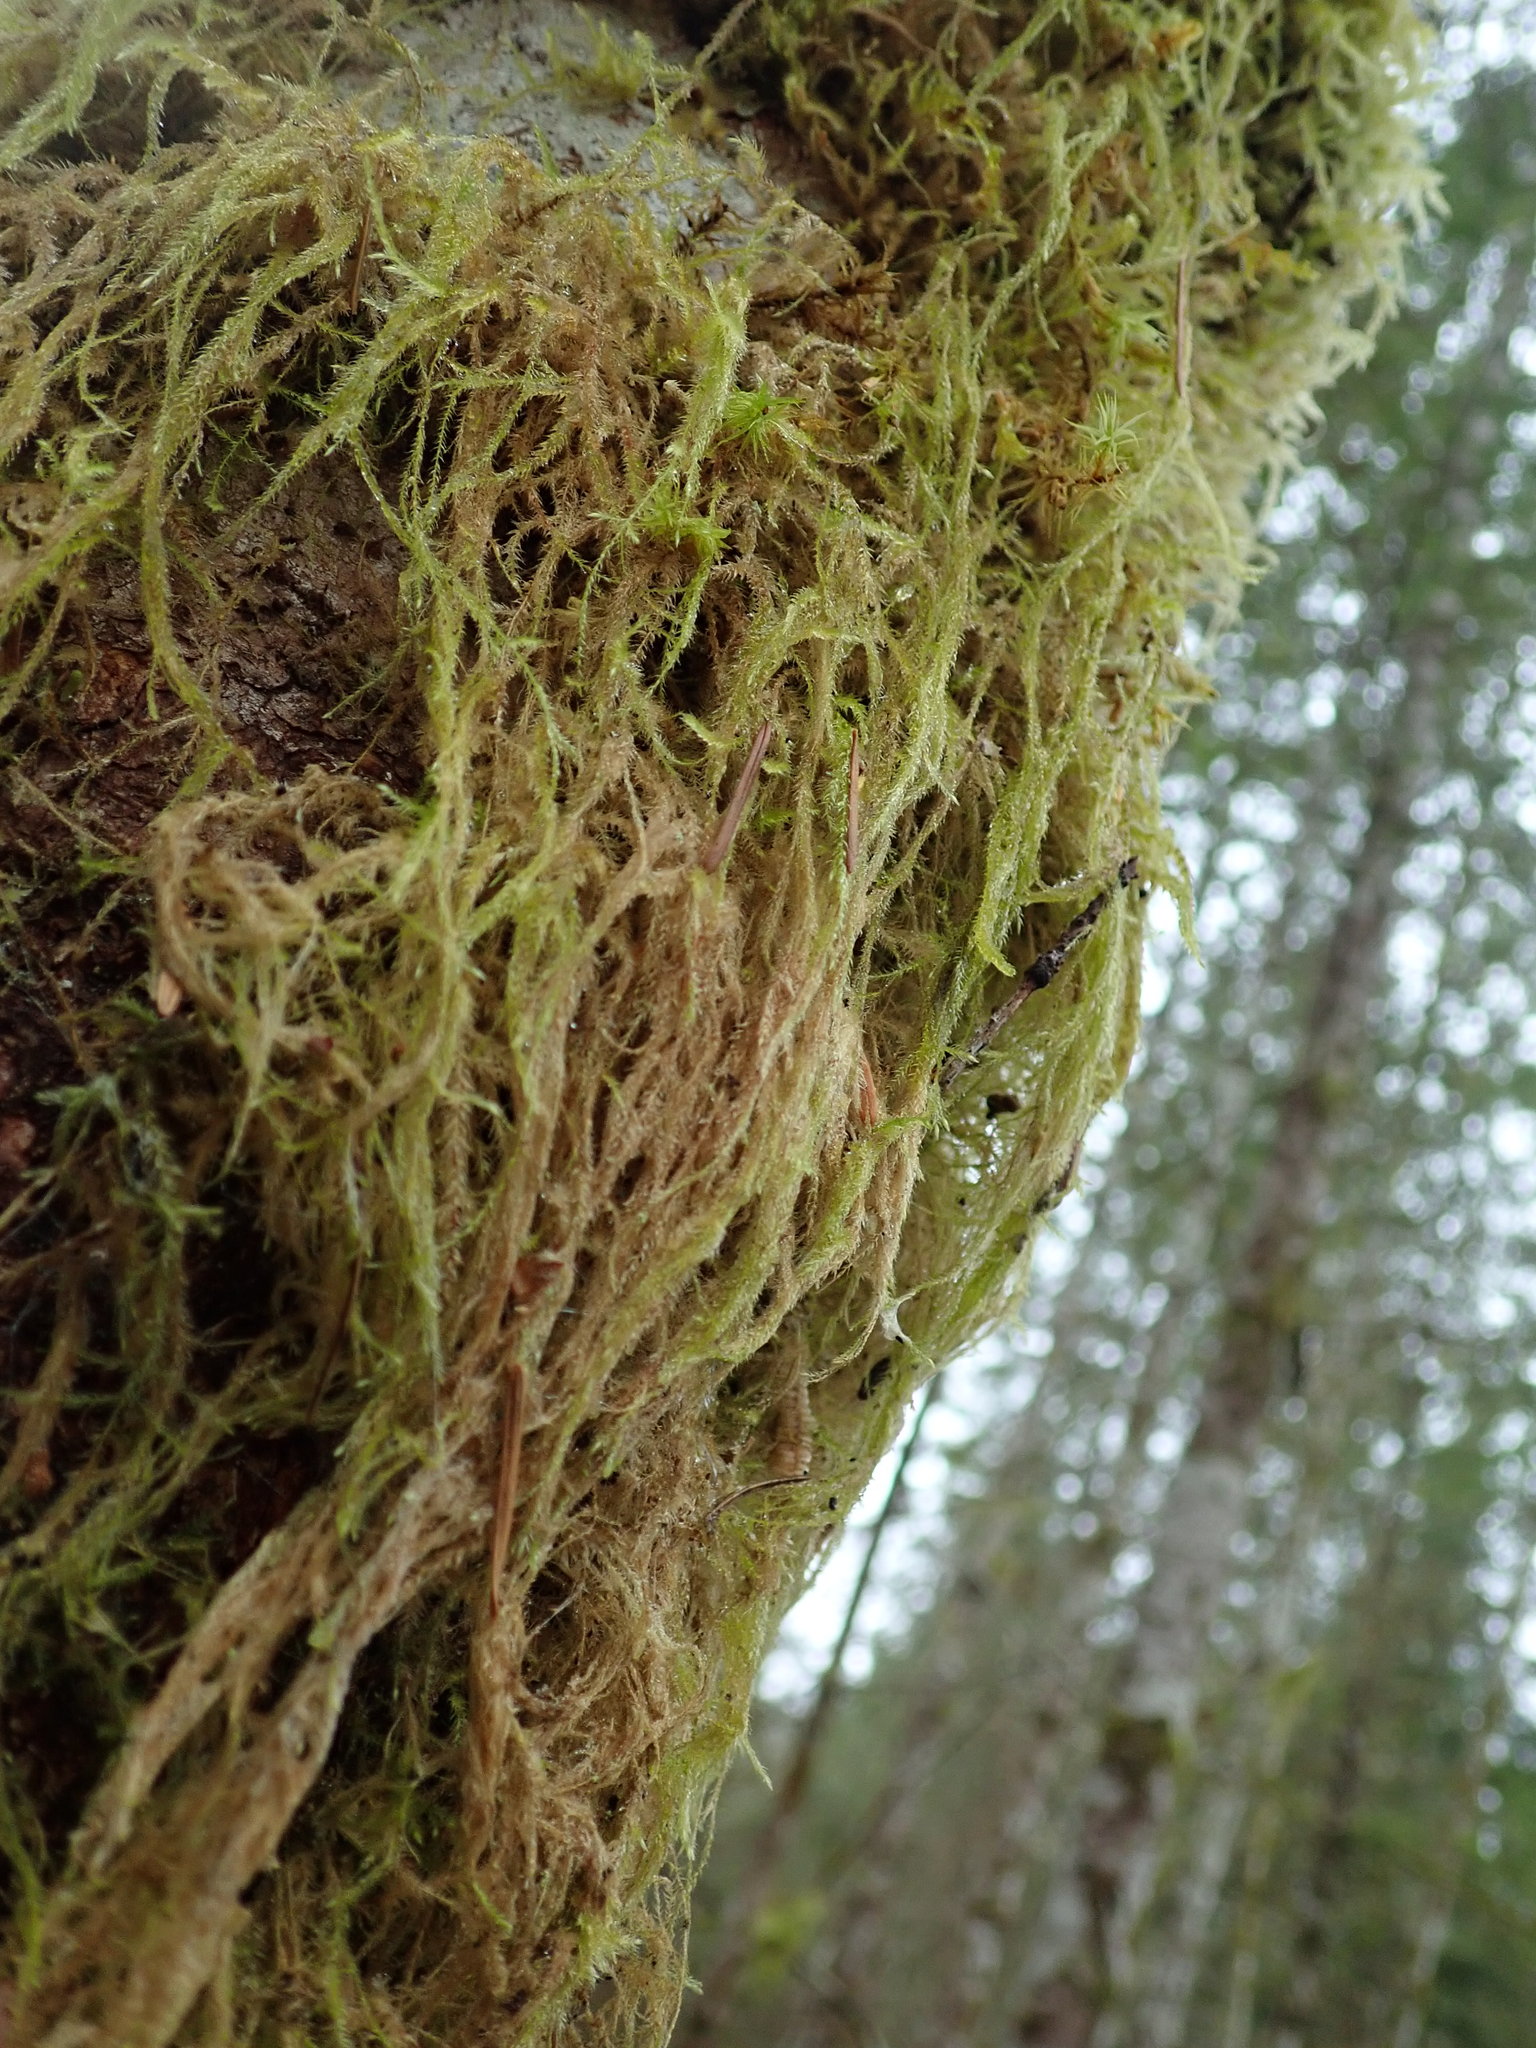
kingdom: Plantae
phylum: Bryophyta
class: Bryopsida
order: Hypnales
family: Lembophyllaceae
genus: Pseudisothecium
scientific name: Pseudisothecium stoloniferum
